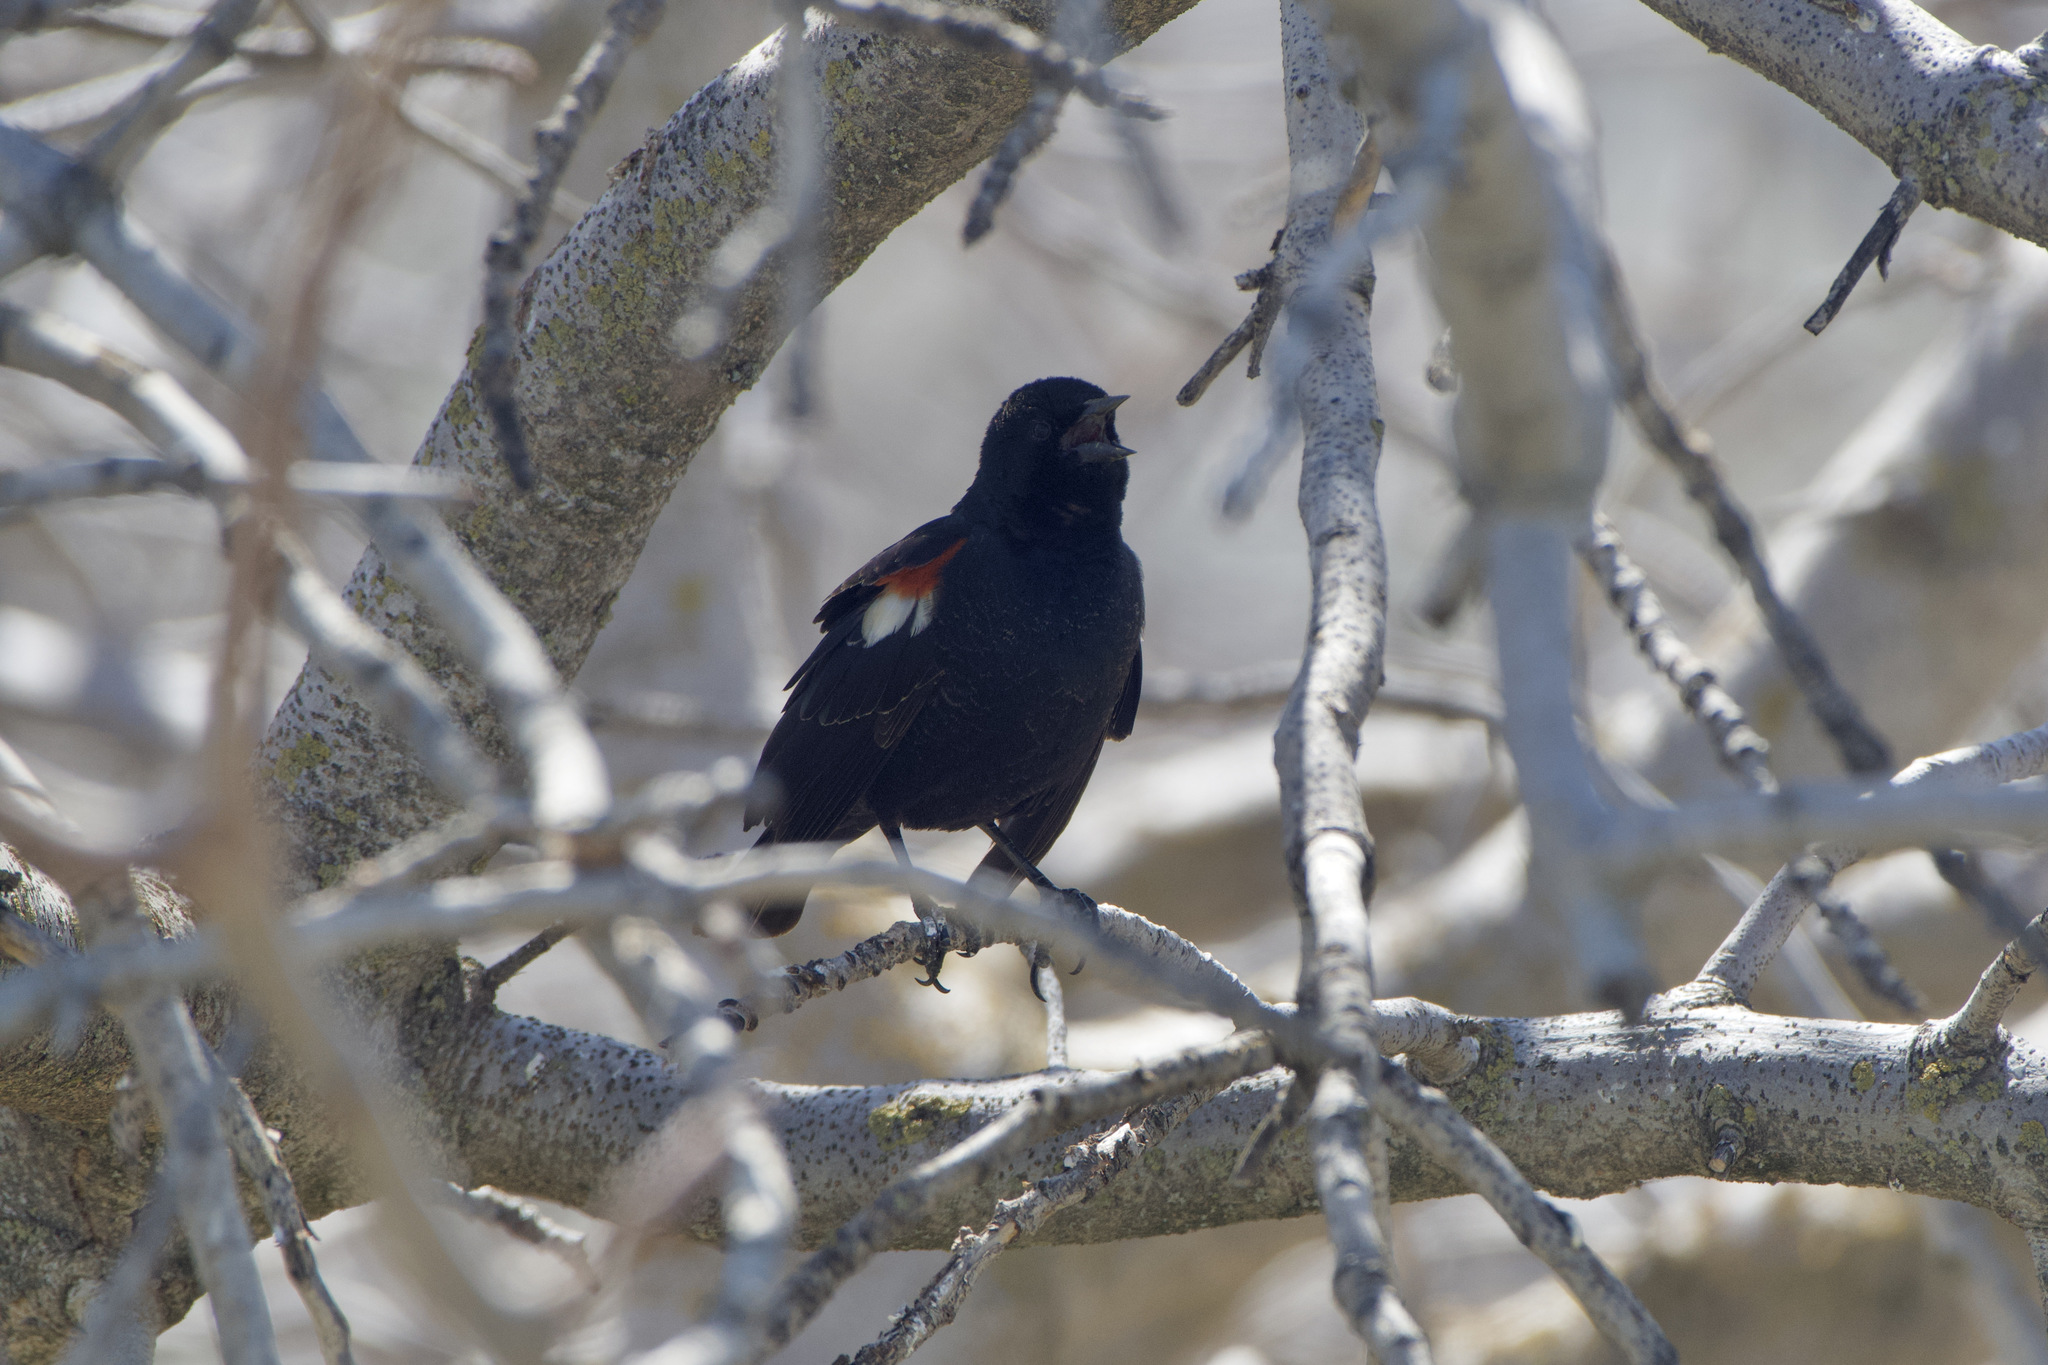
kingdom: Animalia
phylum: Chordata
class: Aves
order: Passeriformes
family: Icteridae
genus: Agelaius
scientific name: Agelaius tricolor
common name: Tricolored blackbird
